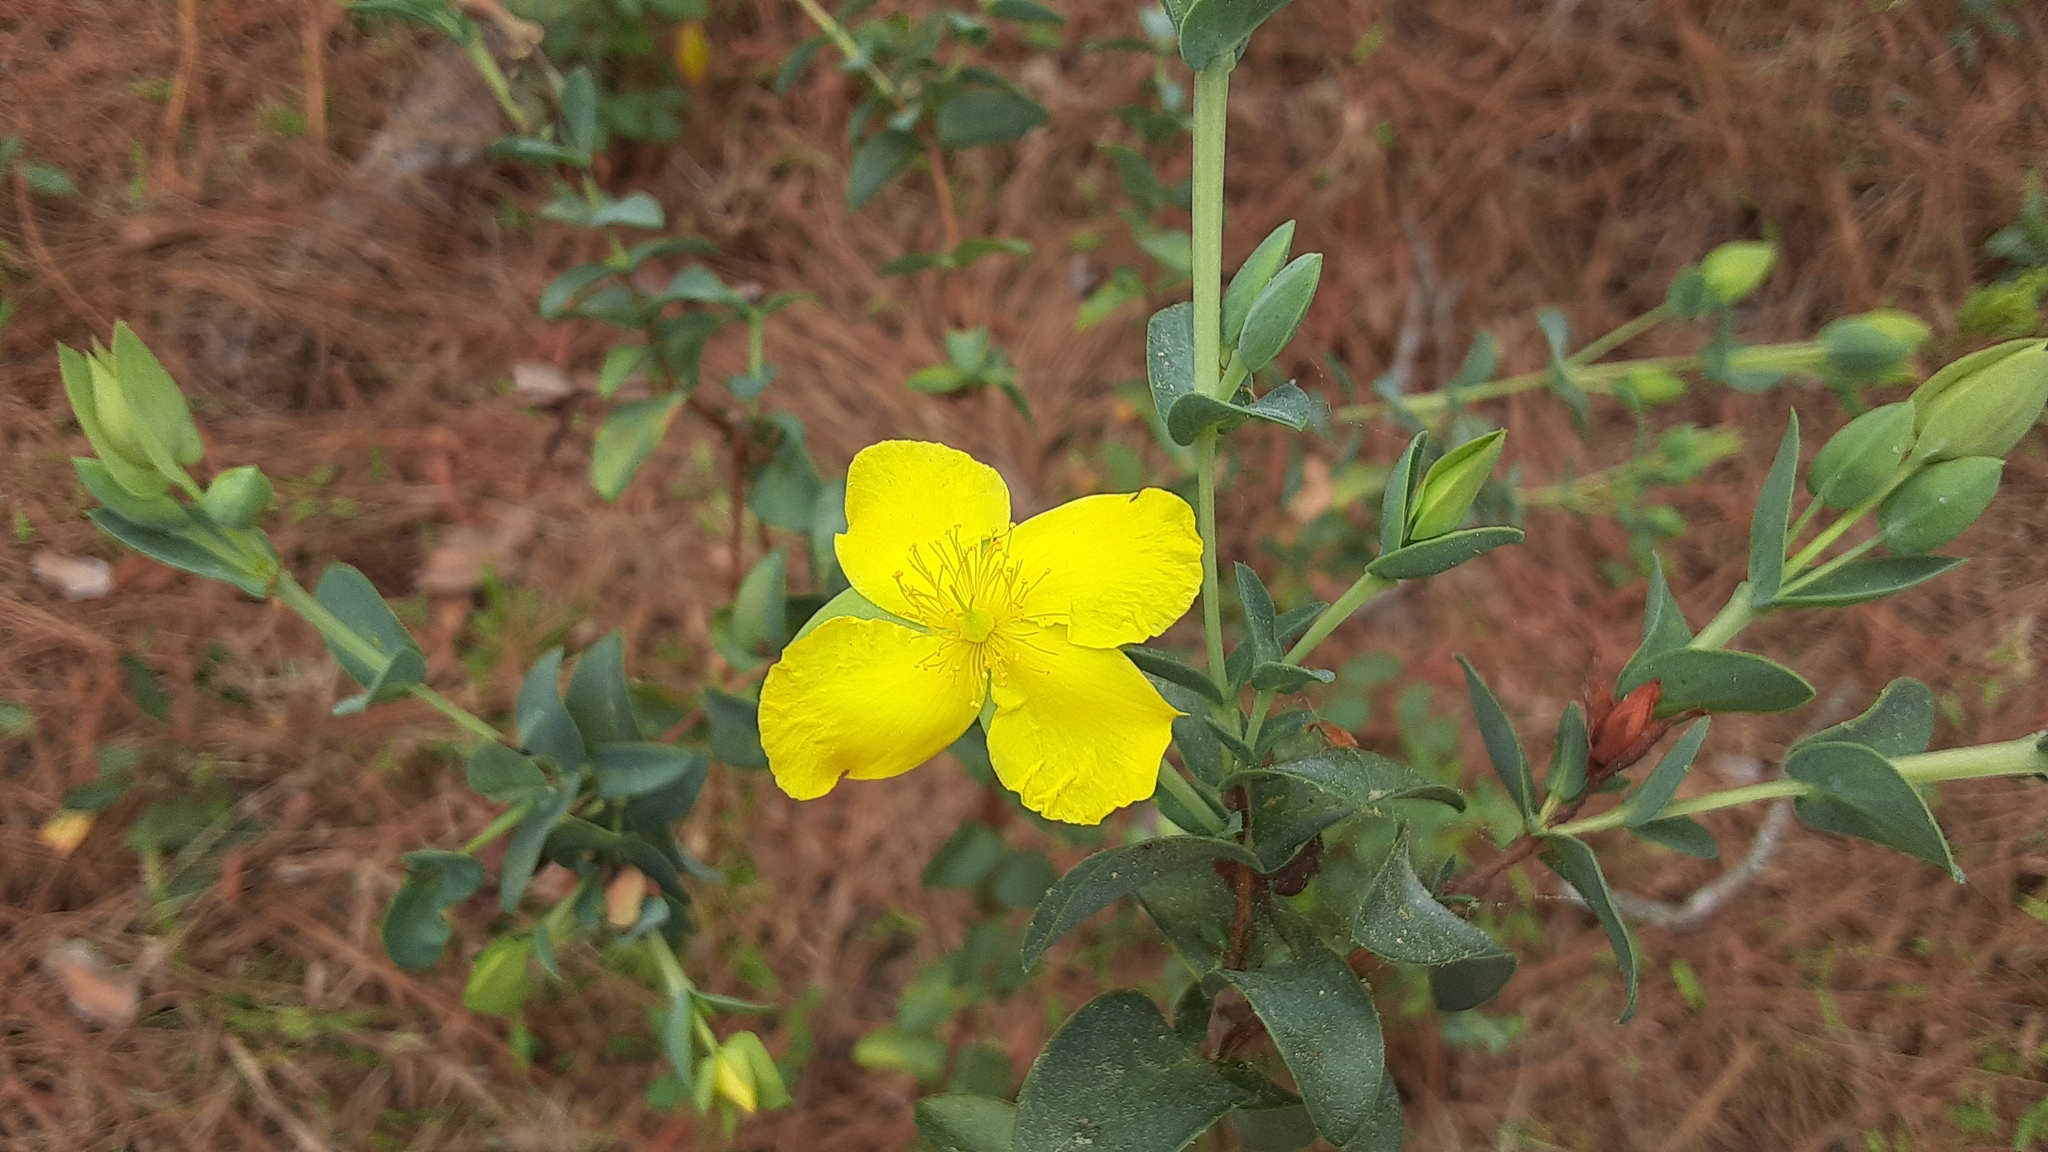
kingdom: Plantae
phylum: Tracheophyta
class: Magnoliopsida
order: Malpighiales
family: Hypericaceae
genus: Hypericum
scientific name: Hypericum tetrapetalum
